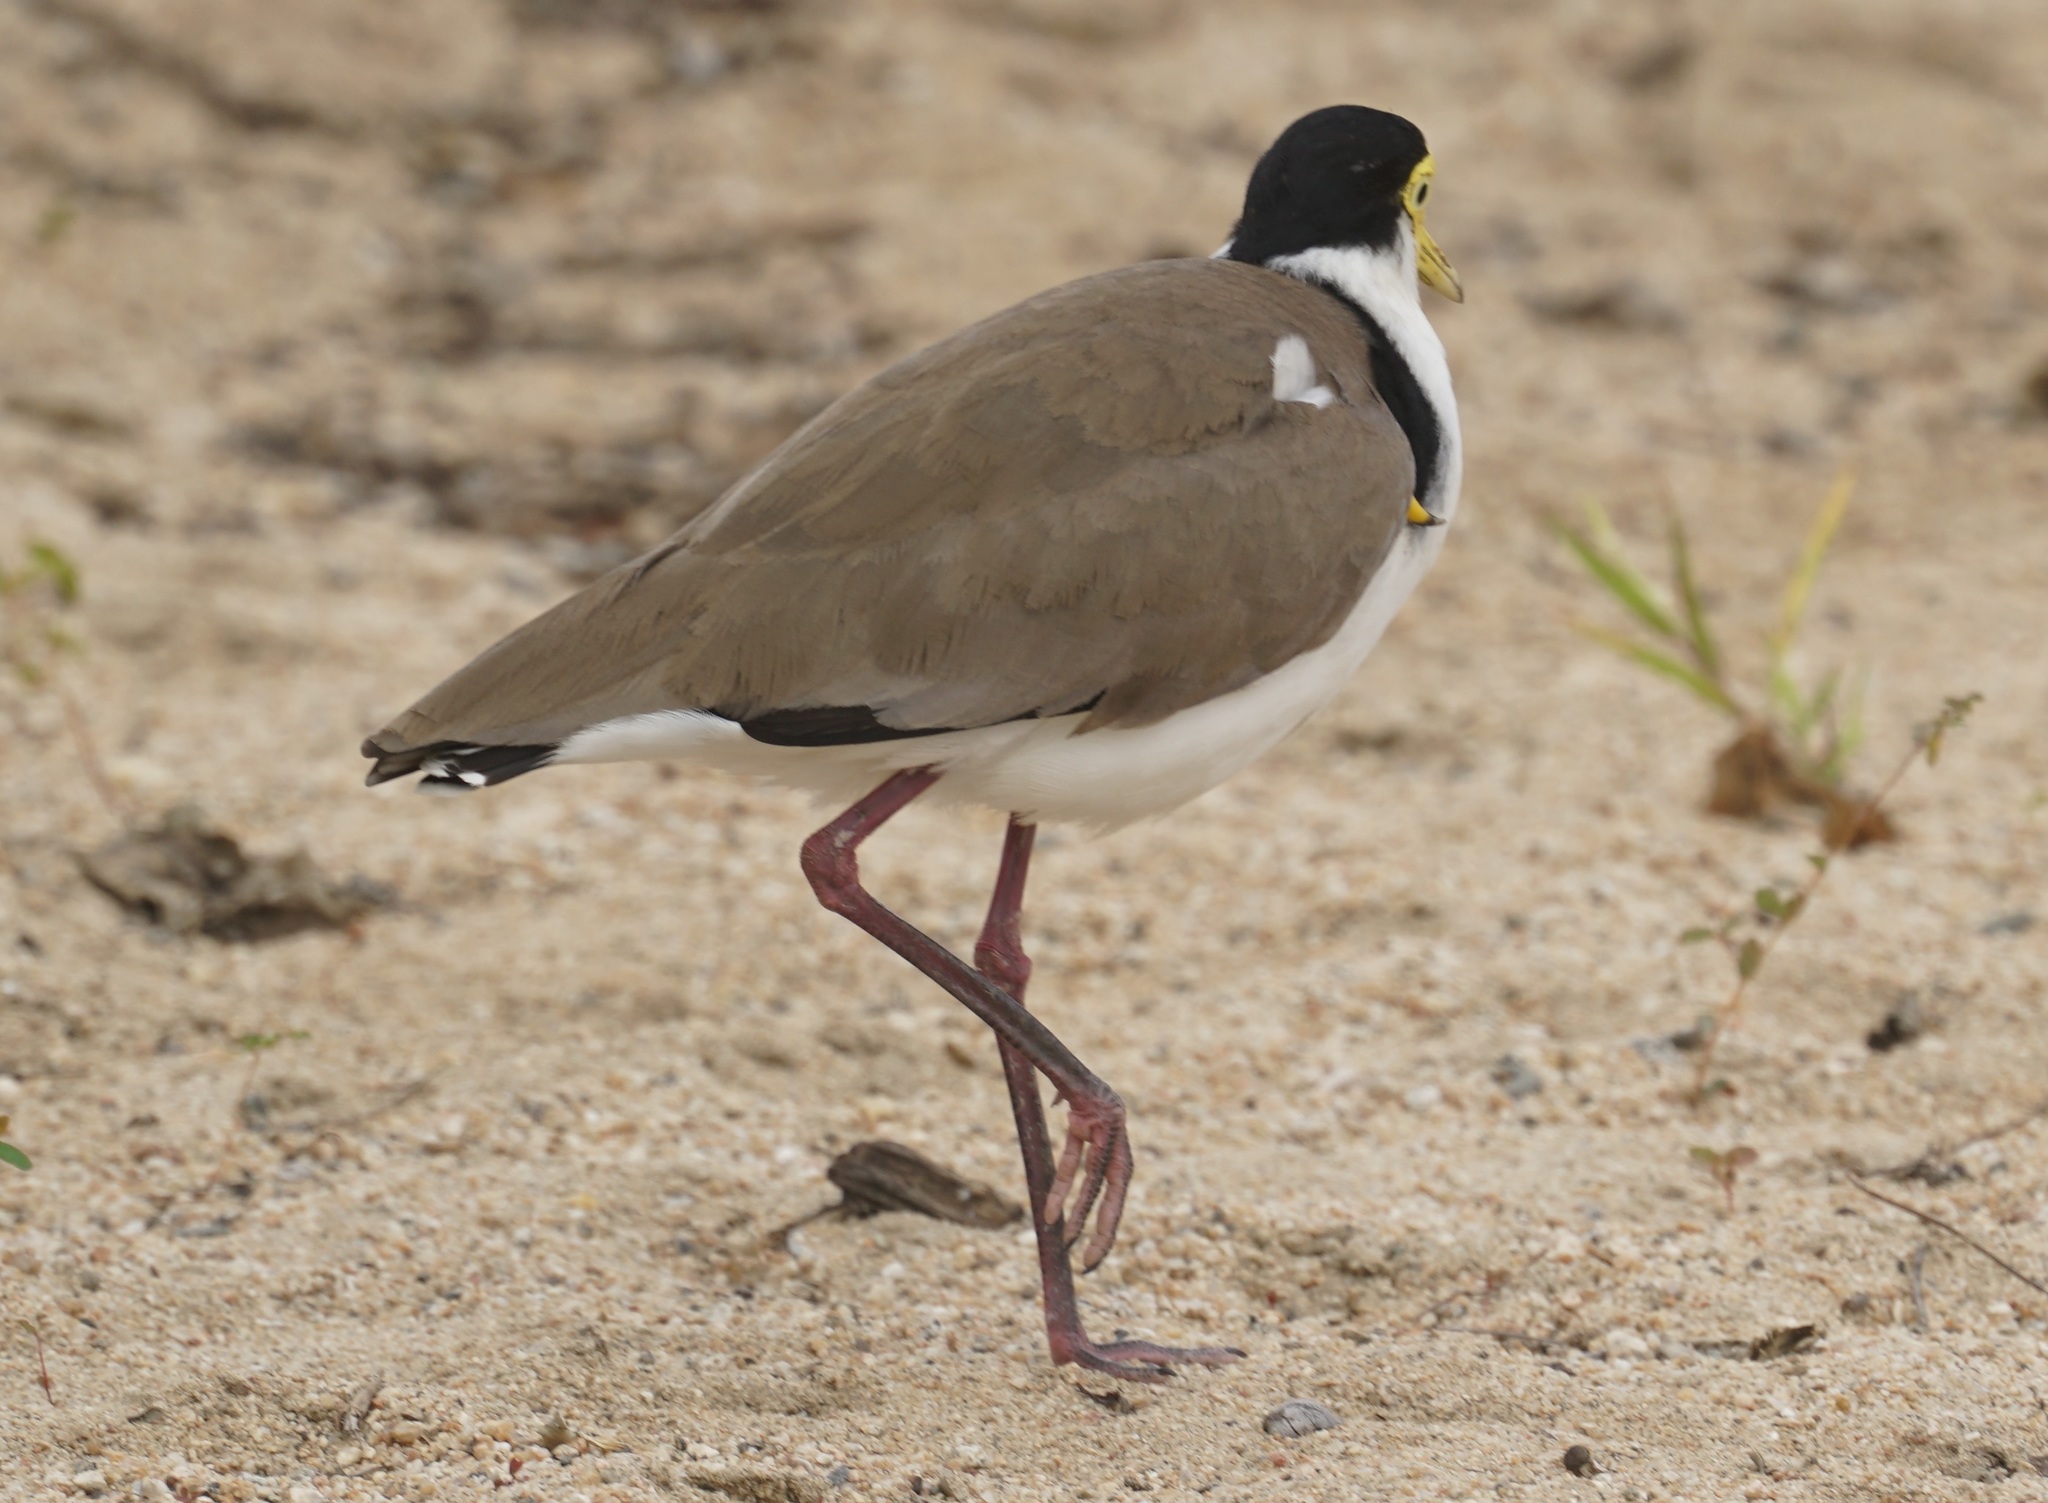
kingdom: Animalia
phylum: Chordata
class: Aves
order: Charadriiformes
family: Charadriidae
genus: Vanellus
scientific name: Vanellus miles
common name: Masked lapwing
